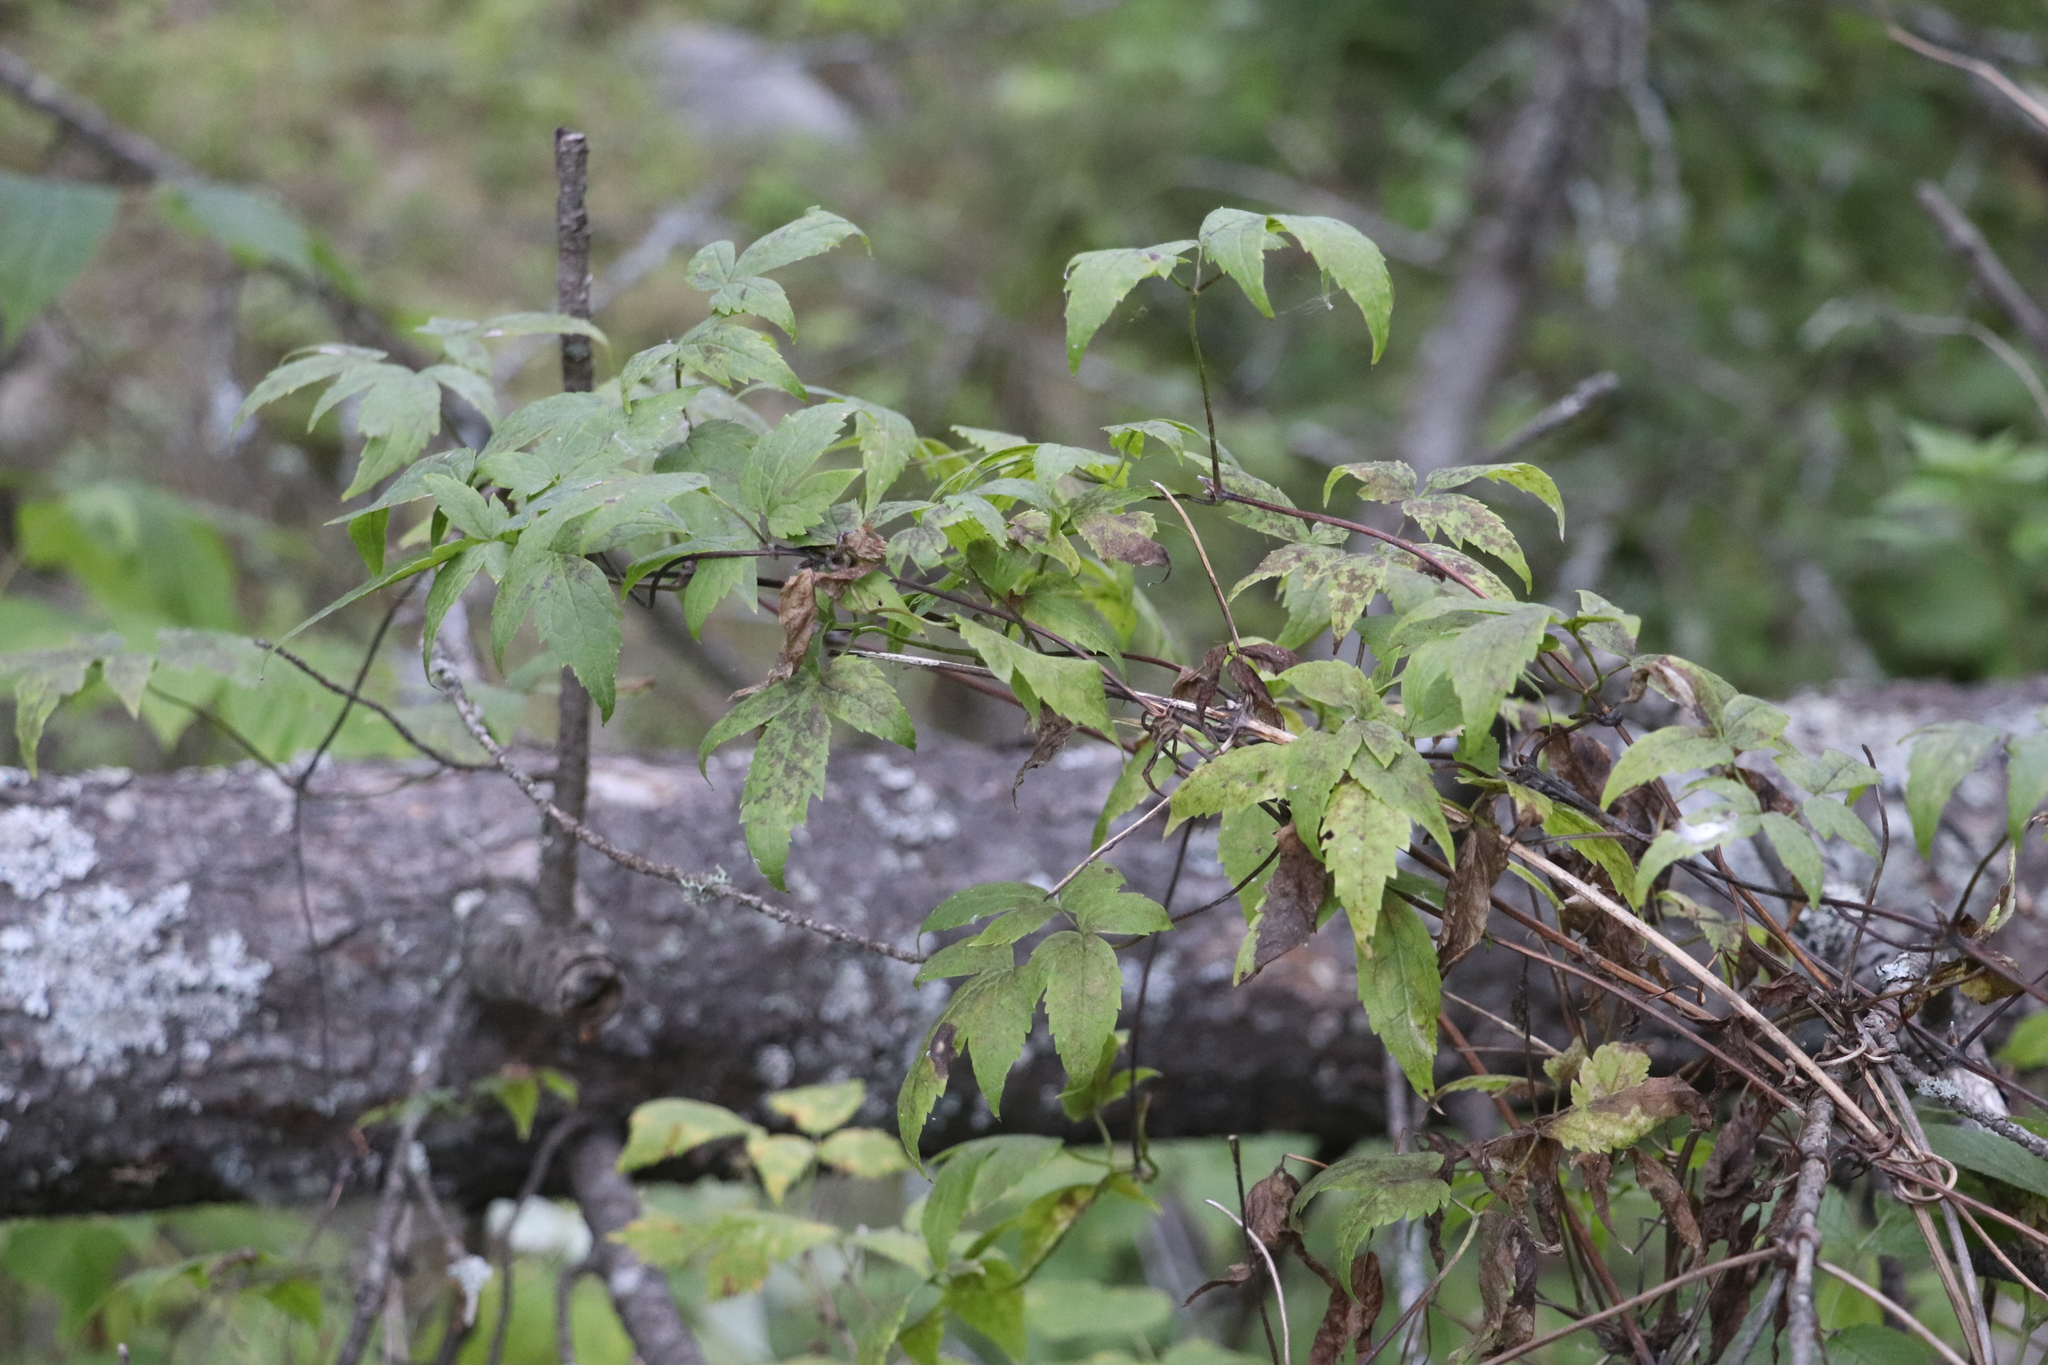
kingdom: Plantae
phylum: Tracheophyta
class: Magnoliopsida
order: Ranunculales
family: Ranunculaceae
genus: Clematis
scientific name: Clematis sibirica
